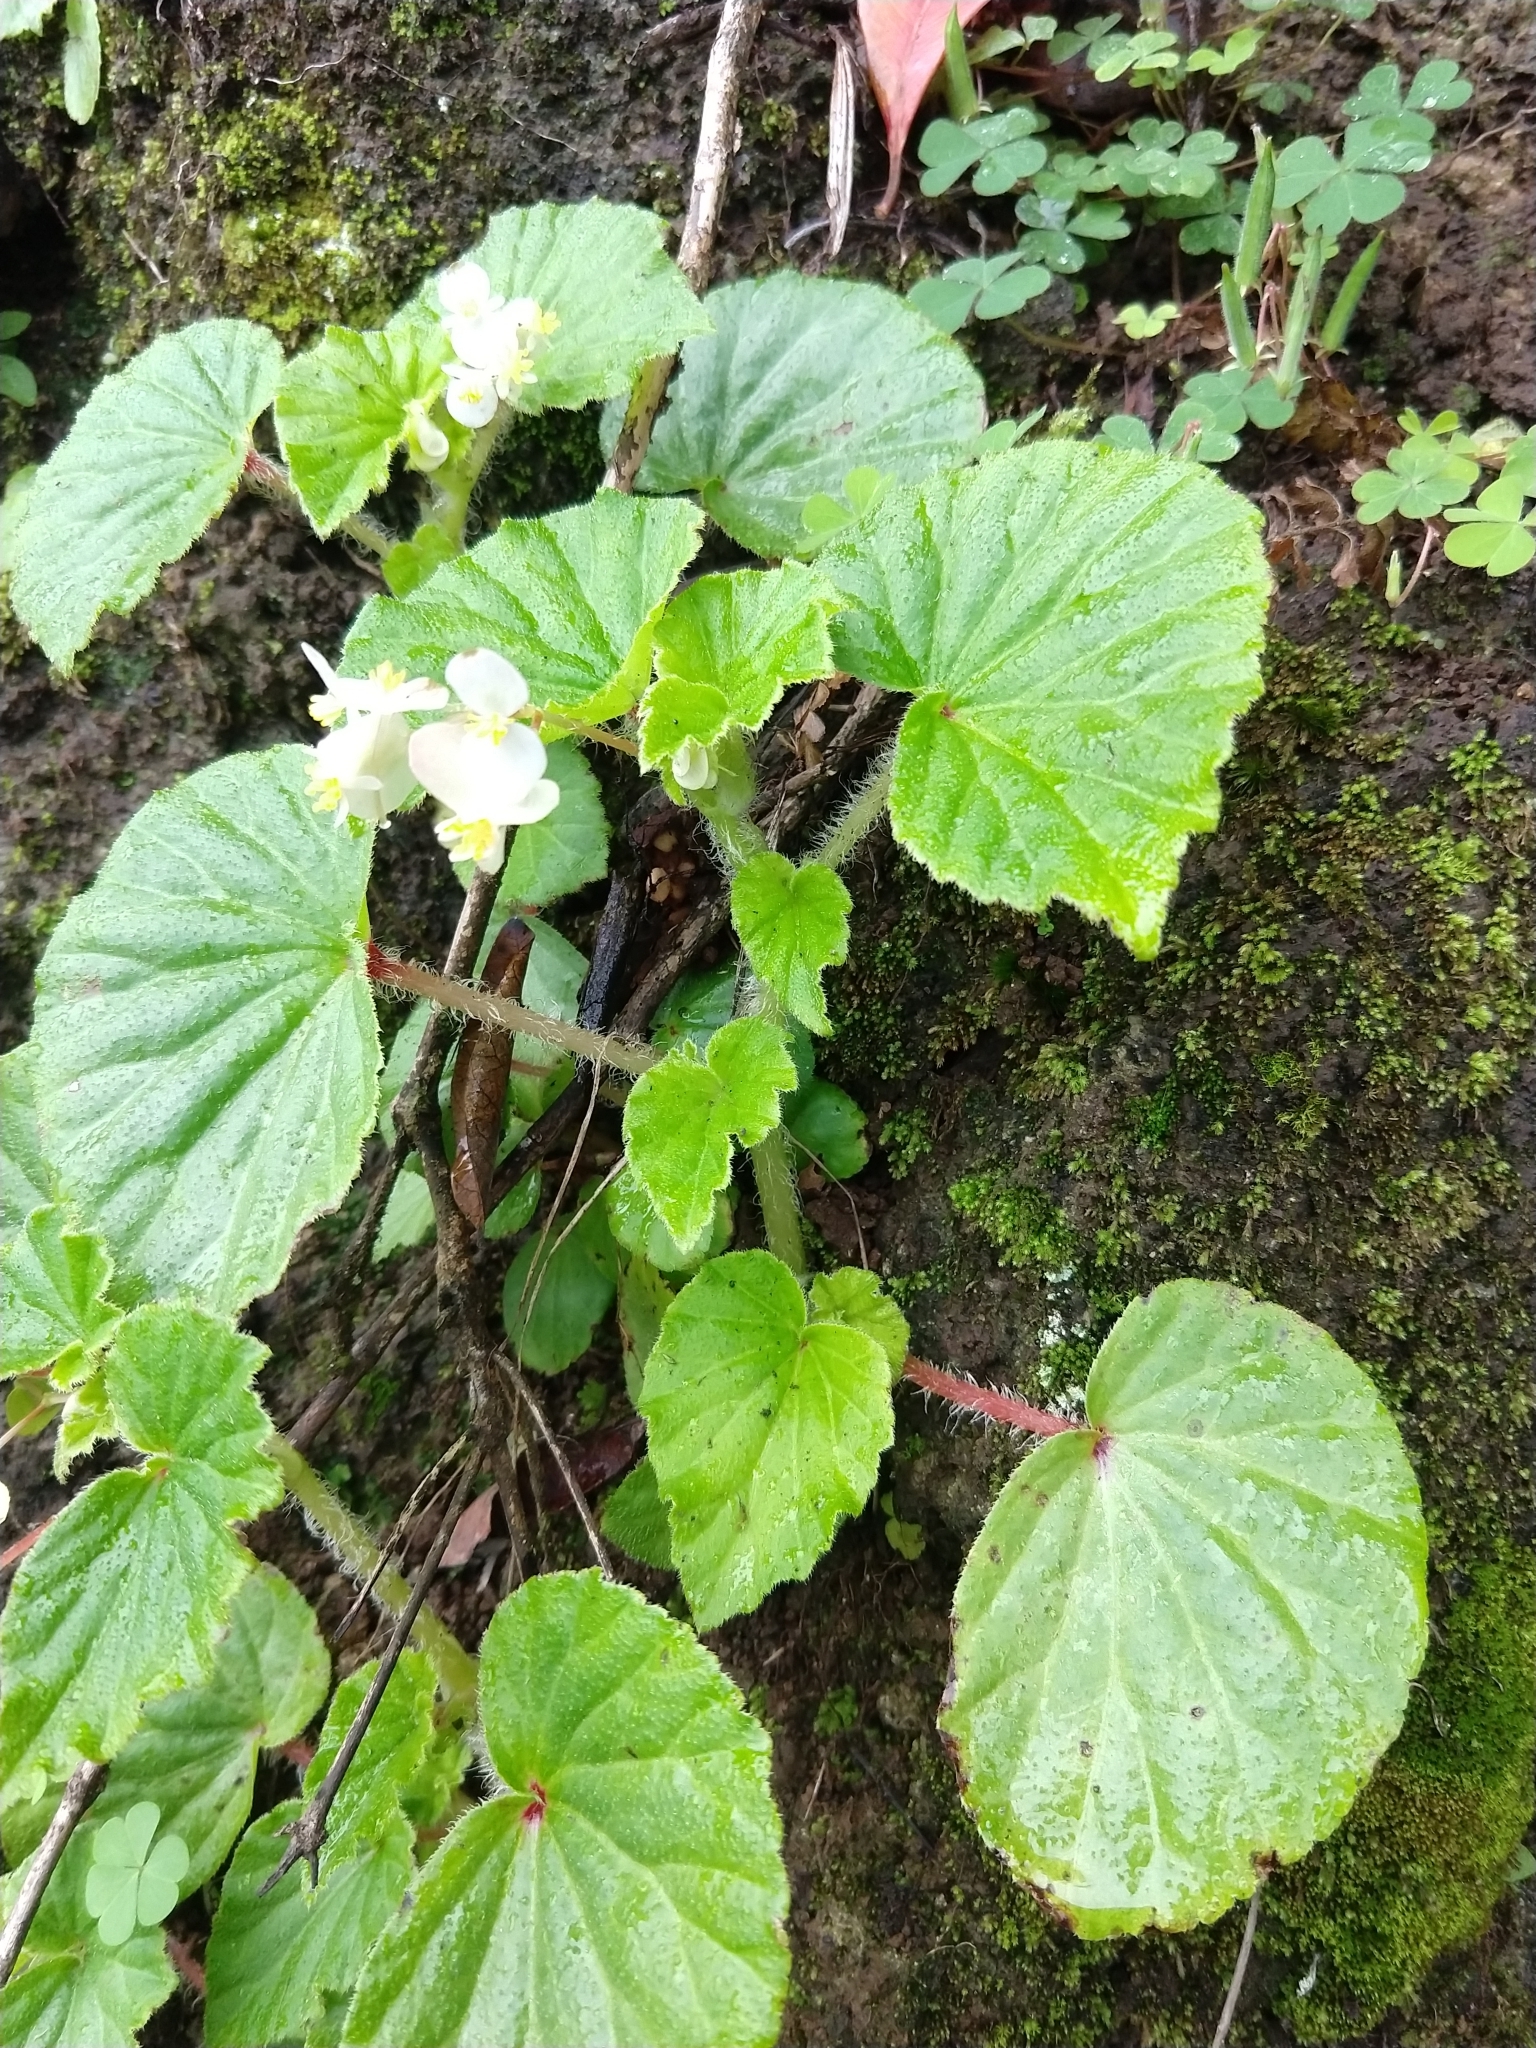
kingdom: Plantae
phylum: Tracheophyta
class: Magnoliopsida
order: Cucurbitales
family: Begoniaceae
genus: Begonia
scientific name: Begonia hirtella
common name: Brazilian begonia
